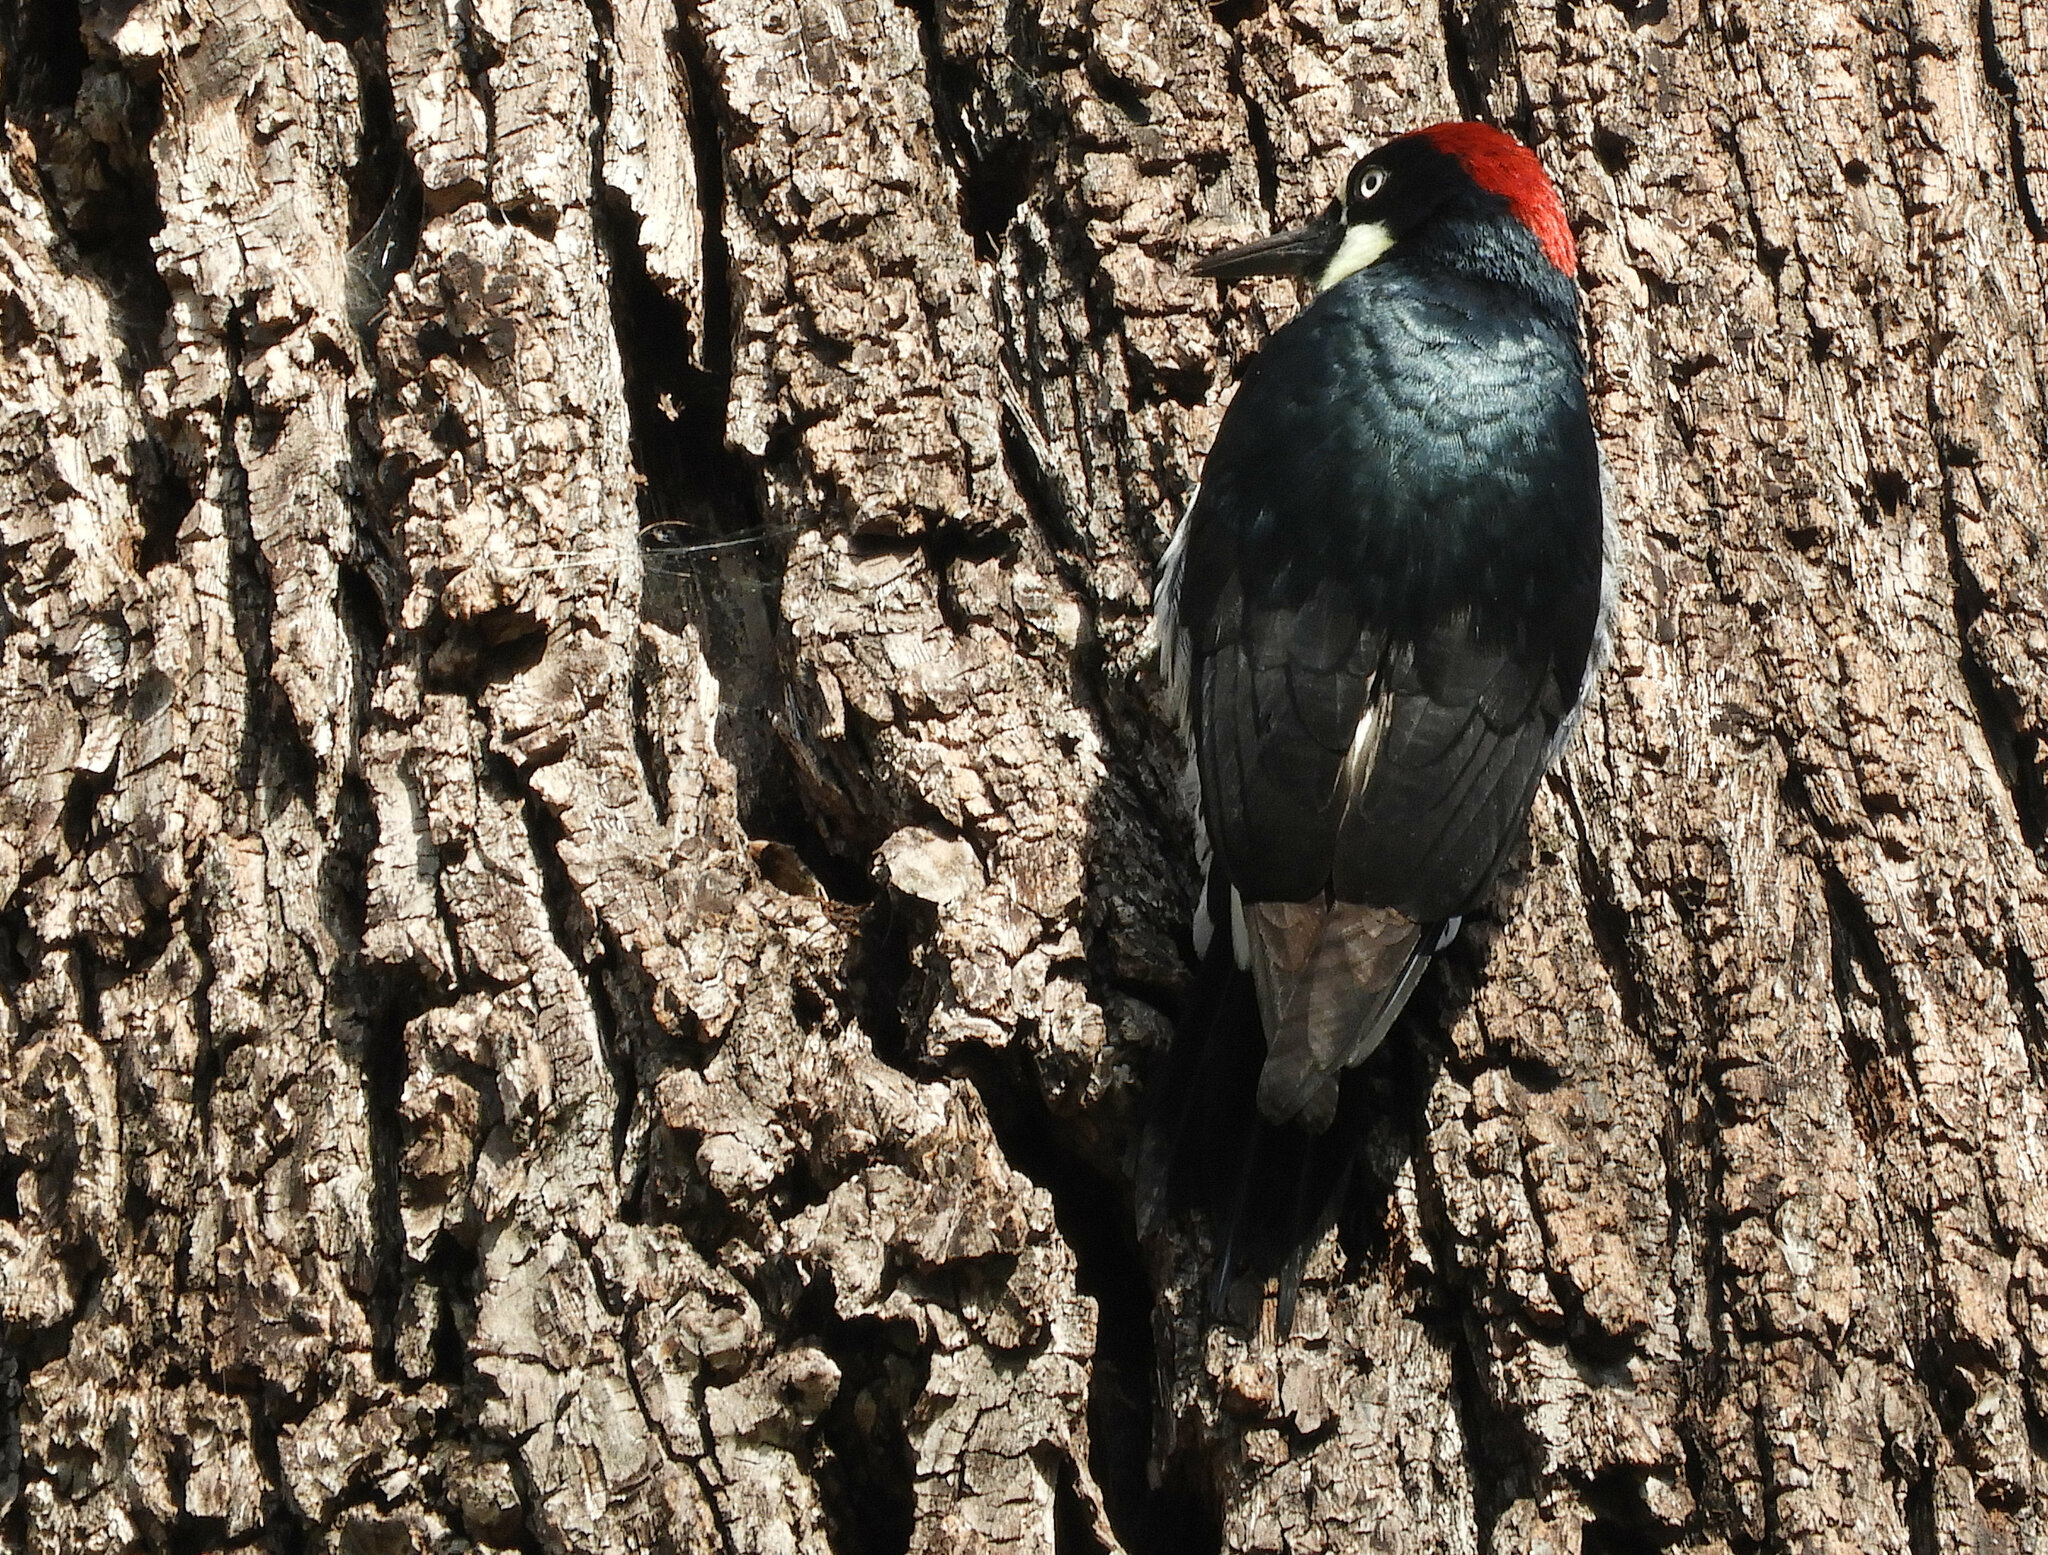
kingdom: Animalia
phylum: Chordata
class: Aves
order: Piciformes
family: Picidae
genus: Melanerpes
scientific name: Melanerpes formicivorus
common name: Acorn woodpecker
